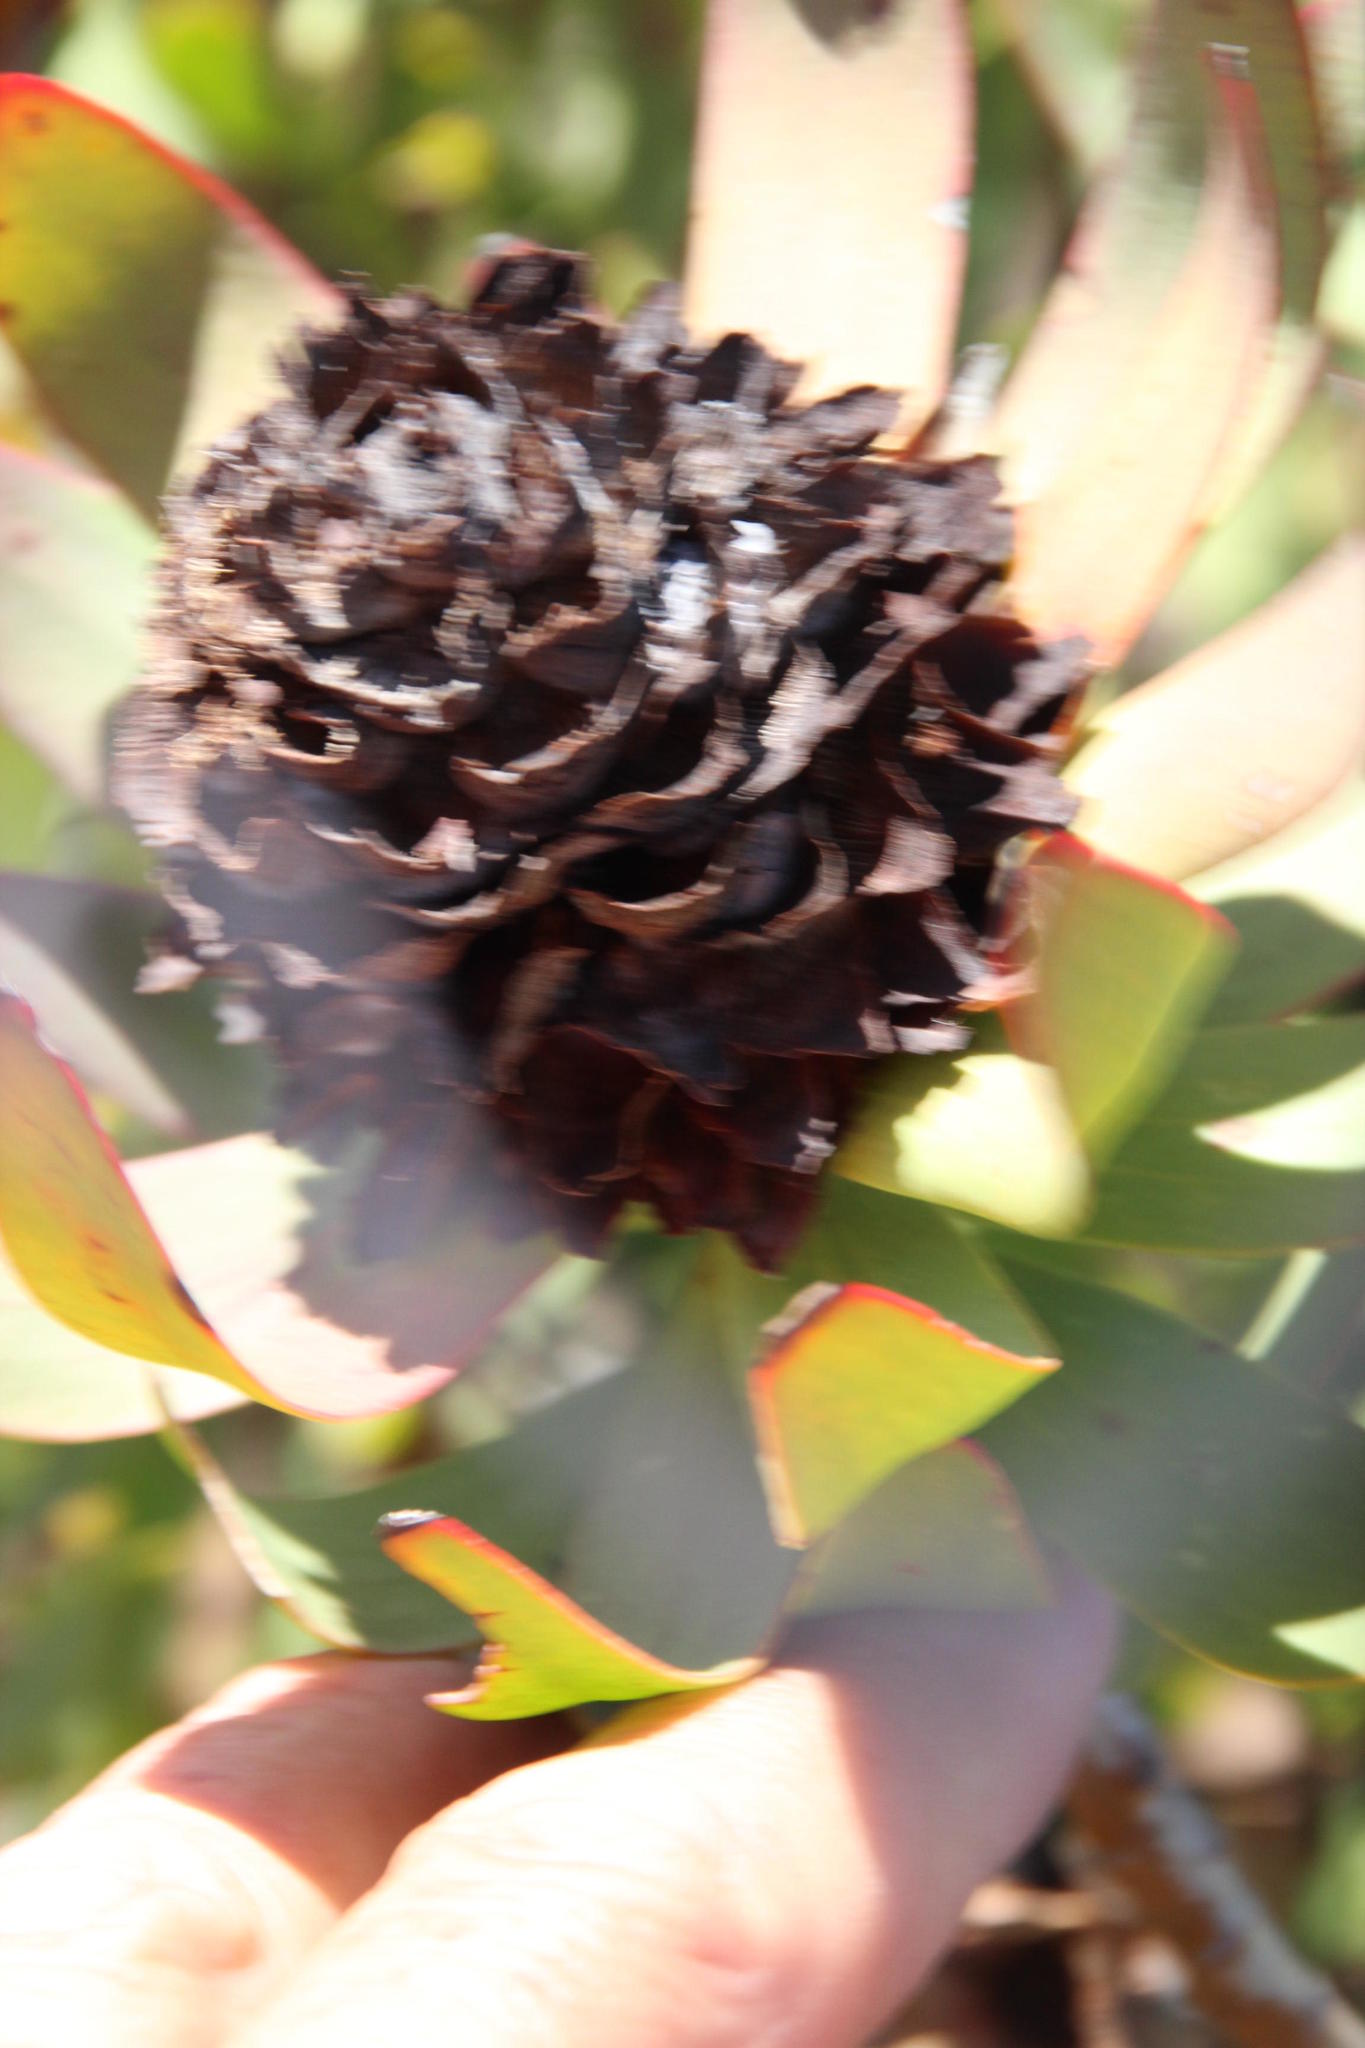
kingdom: Plantae
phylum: Tracheophyta
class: Magnoliopsida
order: Proteales
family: Proteaceae
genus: Leucadendron
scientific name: Leucadendron barkerae
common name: Swartberg conebush
